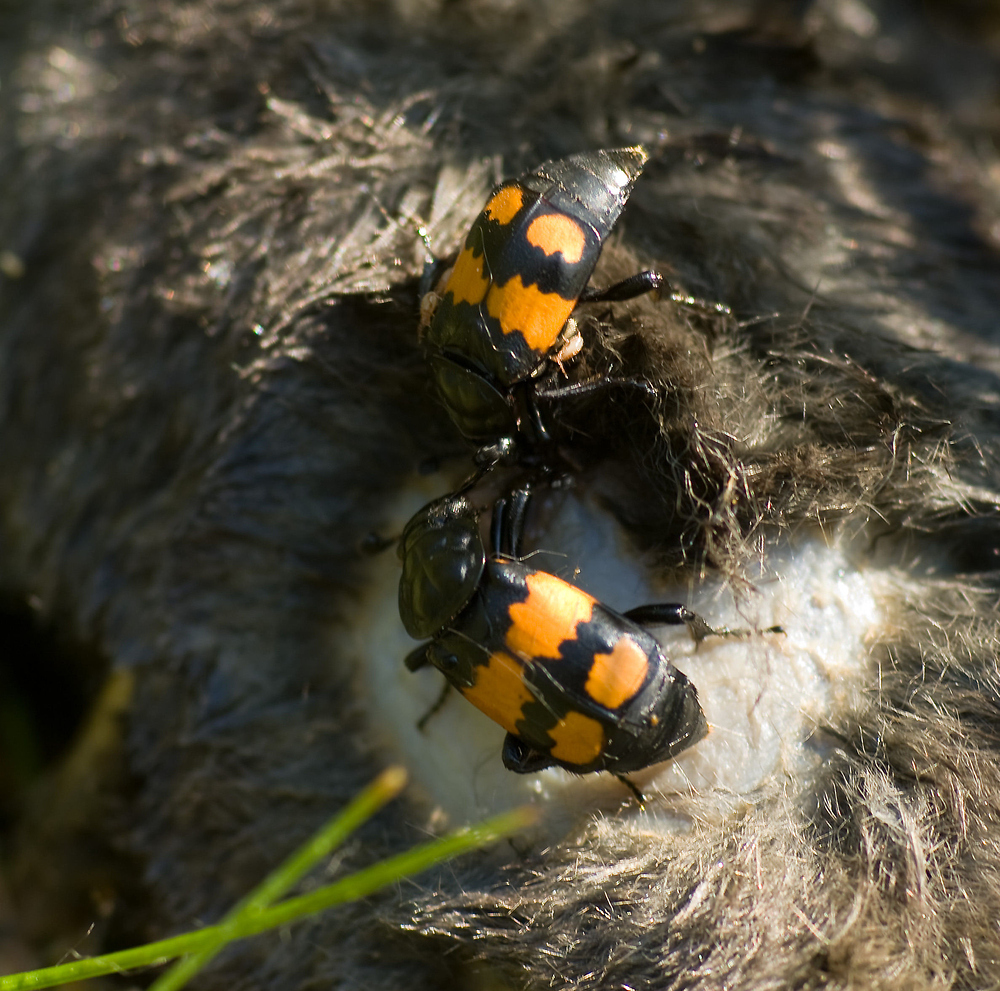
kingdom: Animalia
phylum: Arthropoda
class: Insecta
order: Coleoptera
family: Staphylinidae
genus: Nicrophorus
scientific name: Nicrophorus vespilloides
